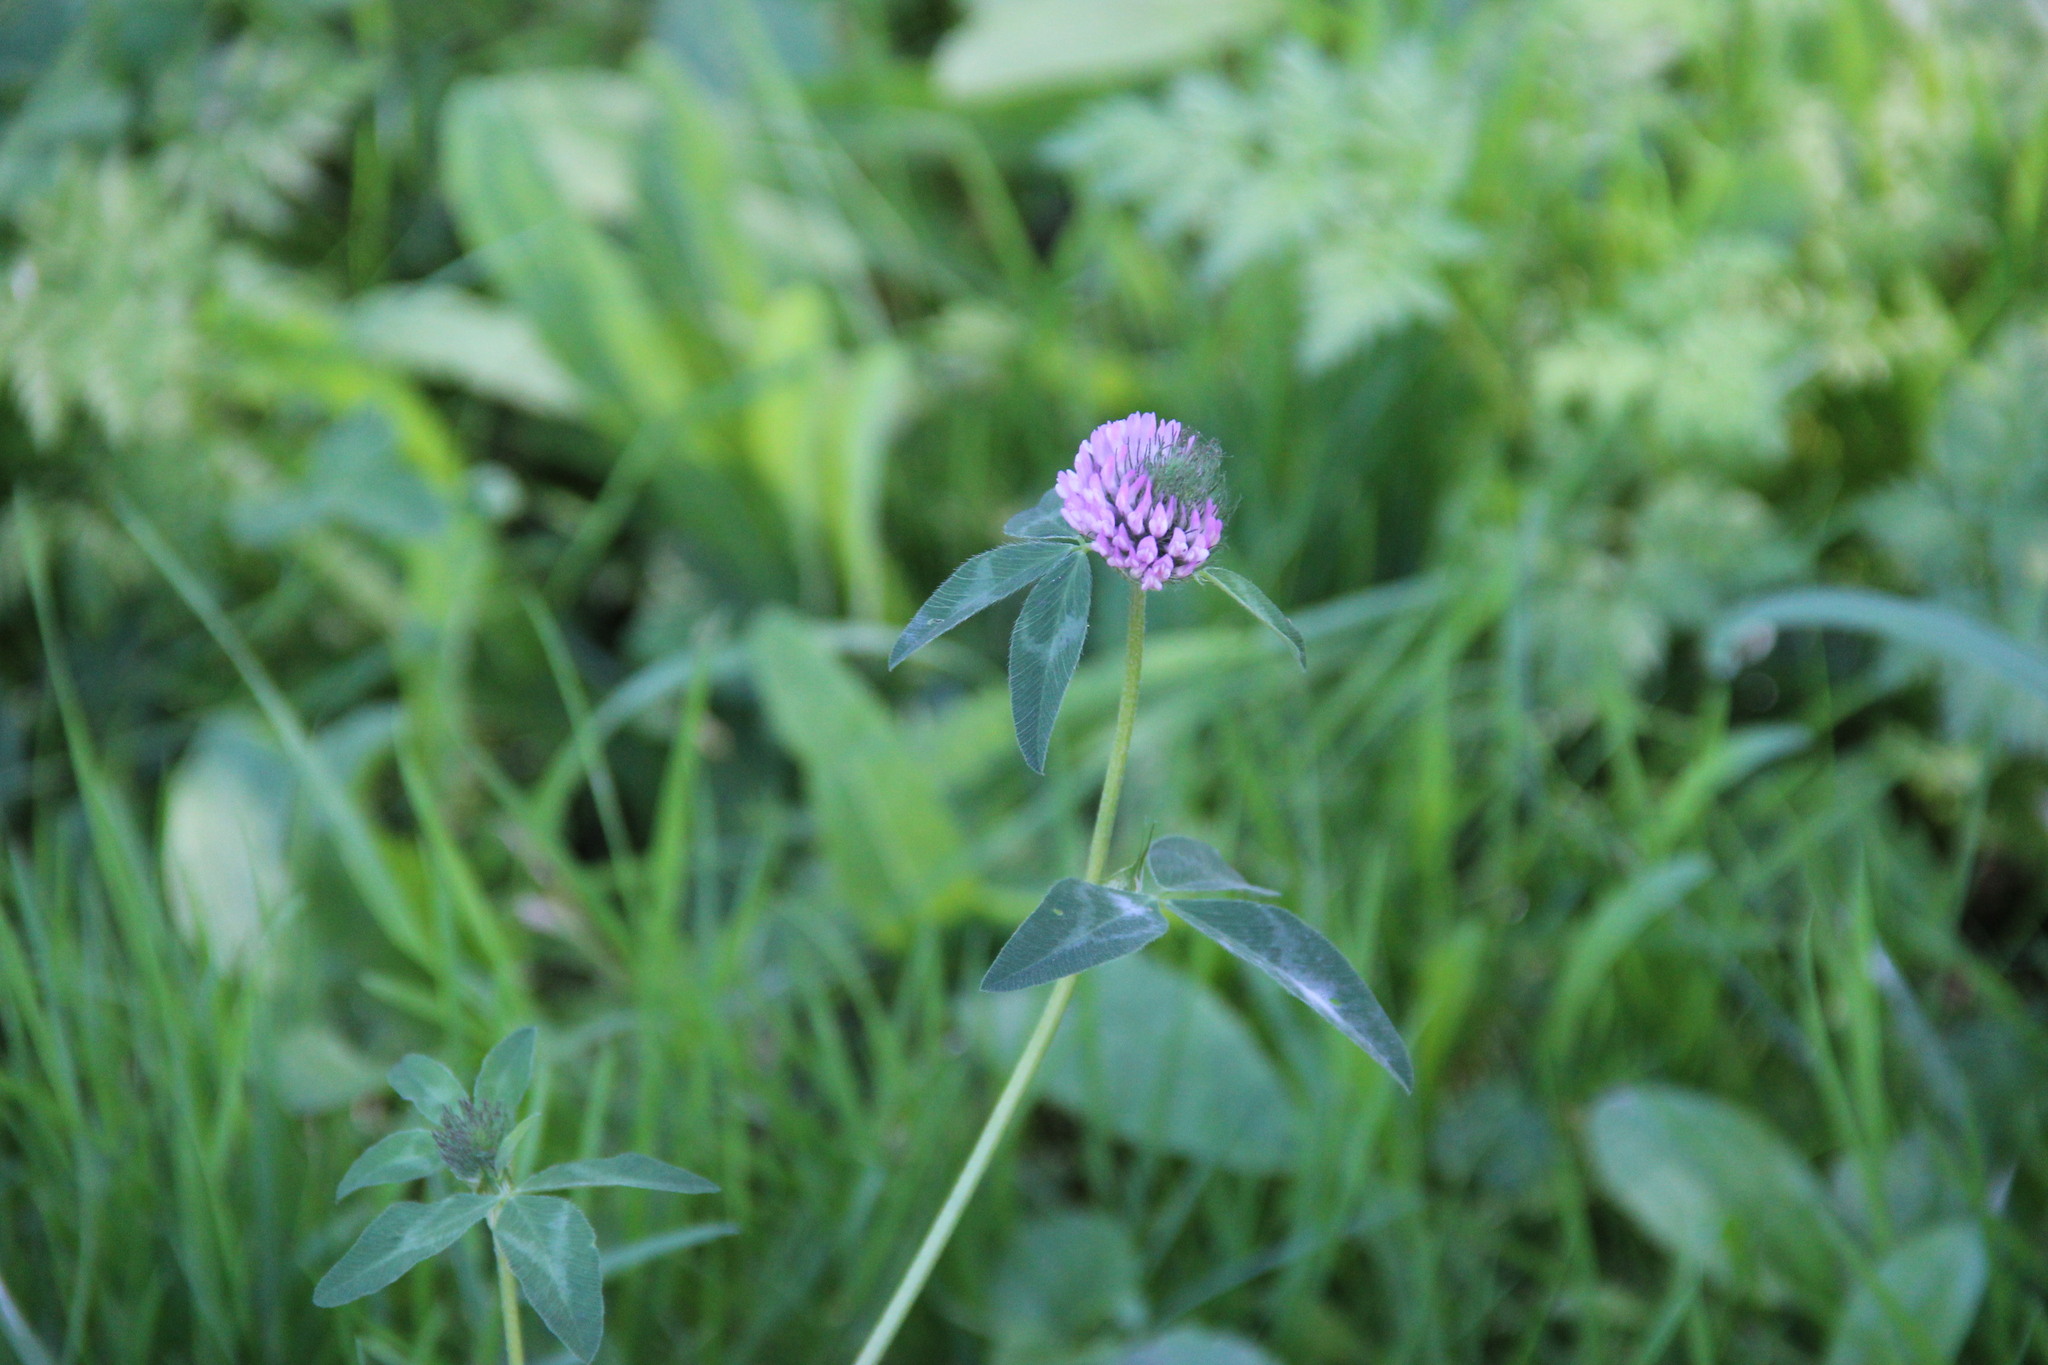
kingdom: Plantae
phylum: Tracheophyta
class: Magnoliopsida
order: Fabales
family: Fabaceae
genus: Trifolium
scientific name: Trifolium pratense
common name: Red clover
